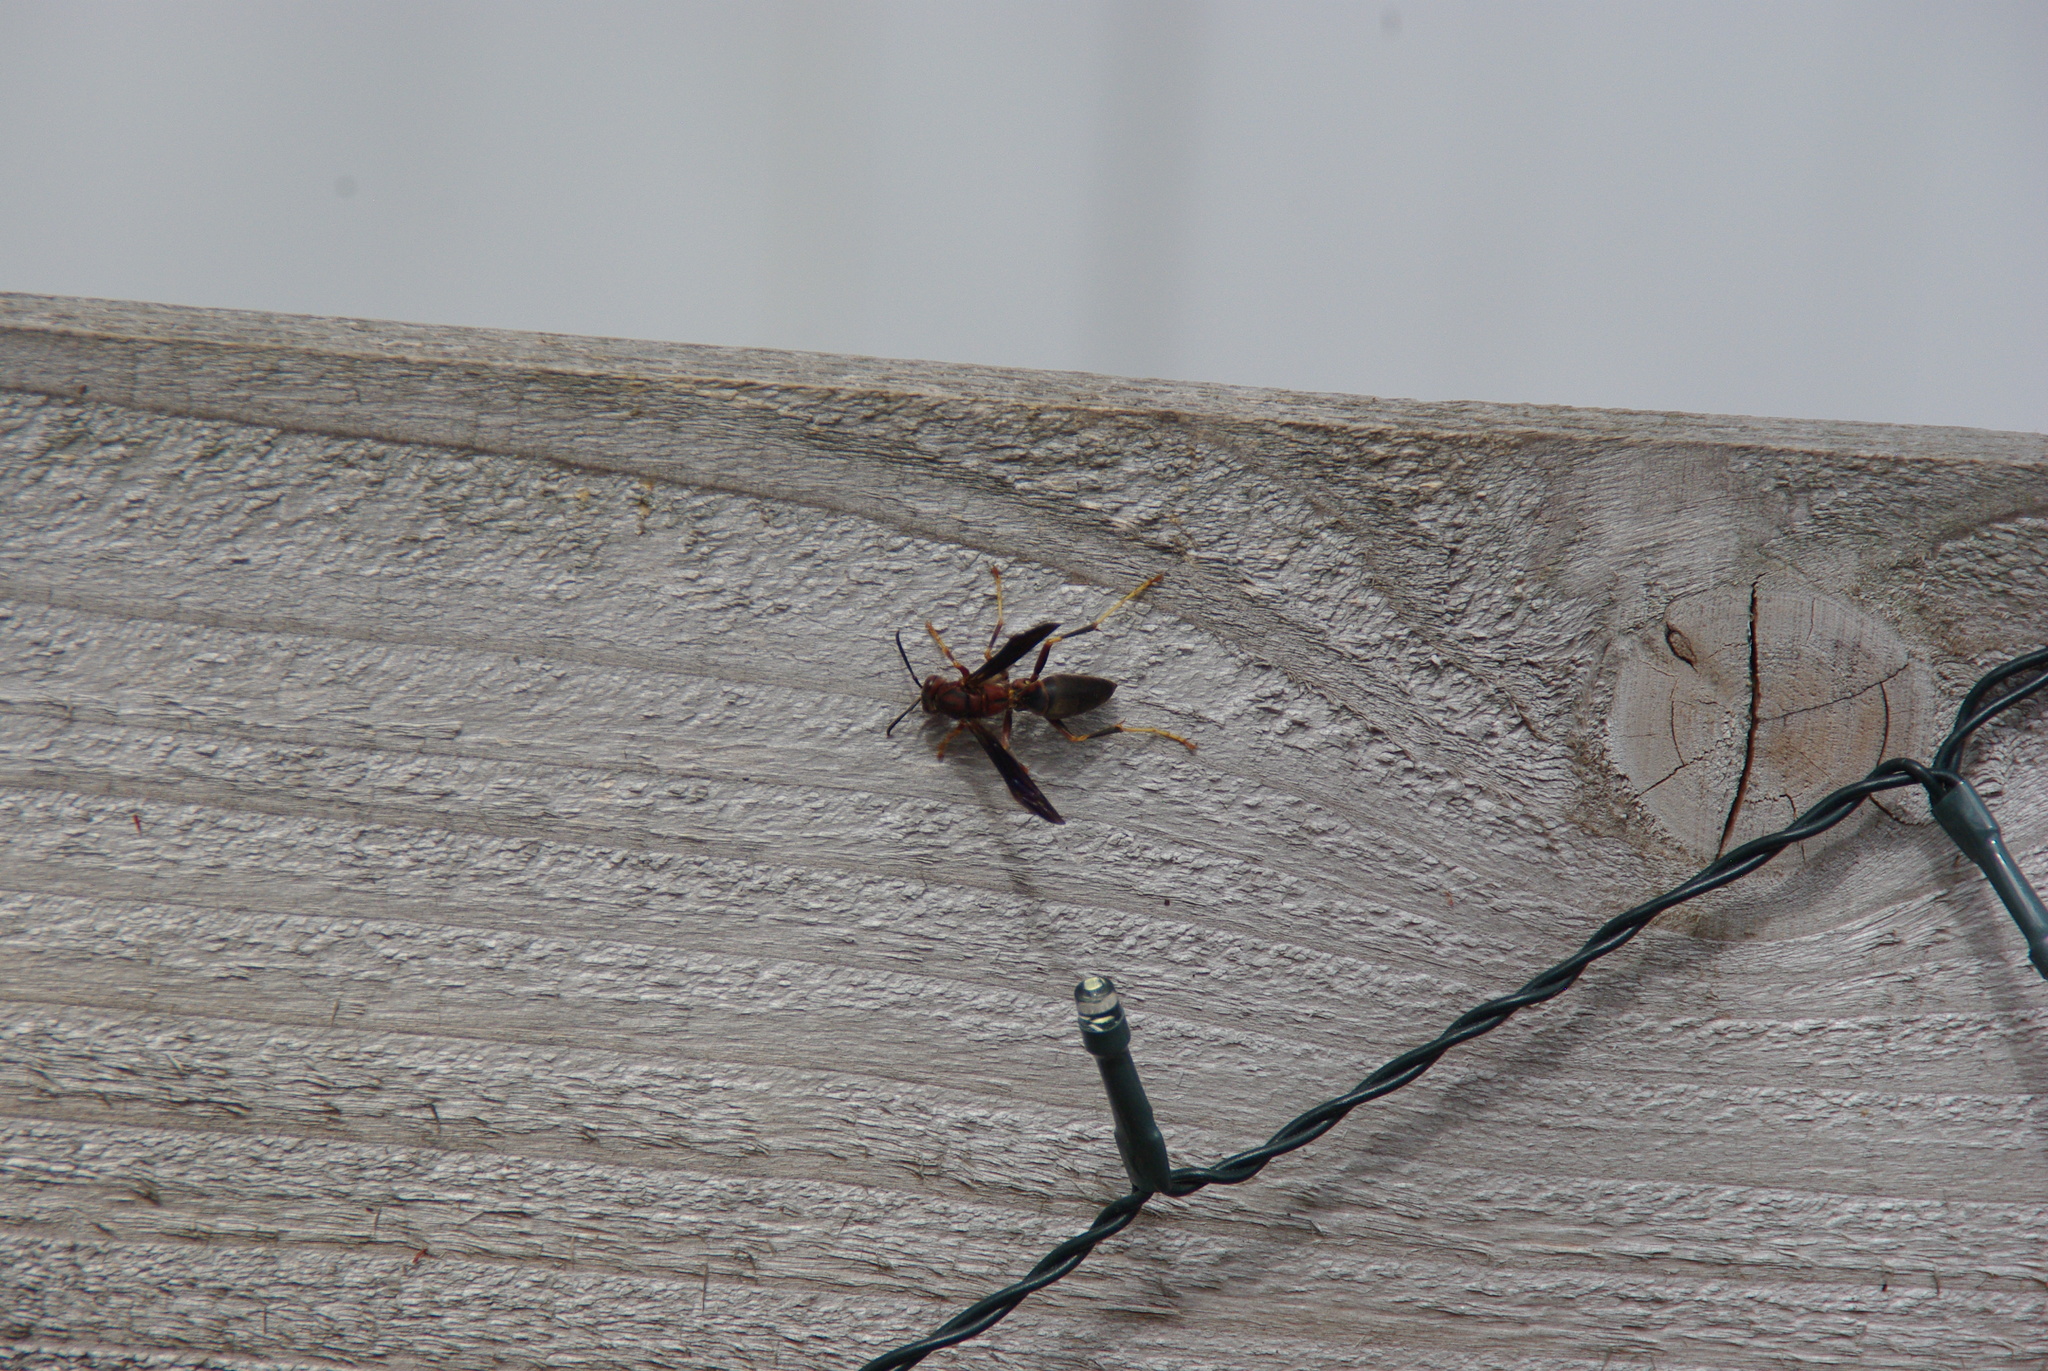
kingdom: Animalia
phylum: Arthropoda
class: Insecta
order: Hymenoptera
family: Eumenidae
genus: Polistes
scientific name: Polistes metricus
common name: Metric paper wasp
